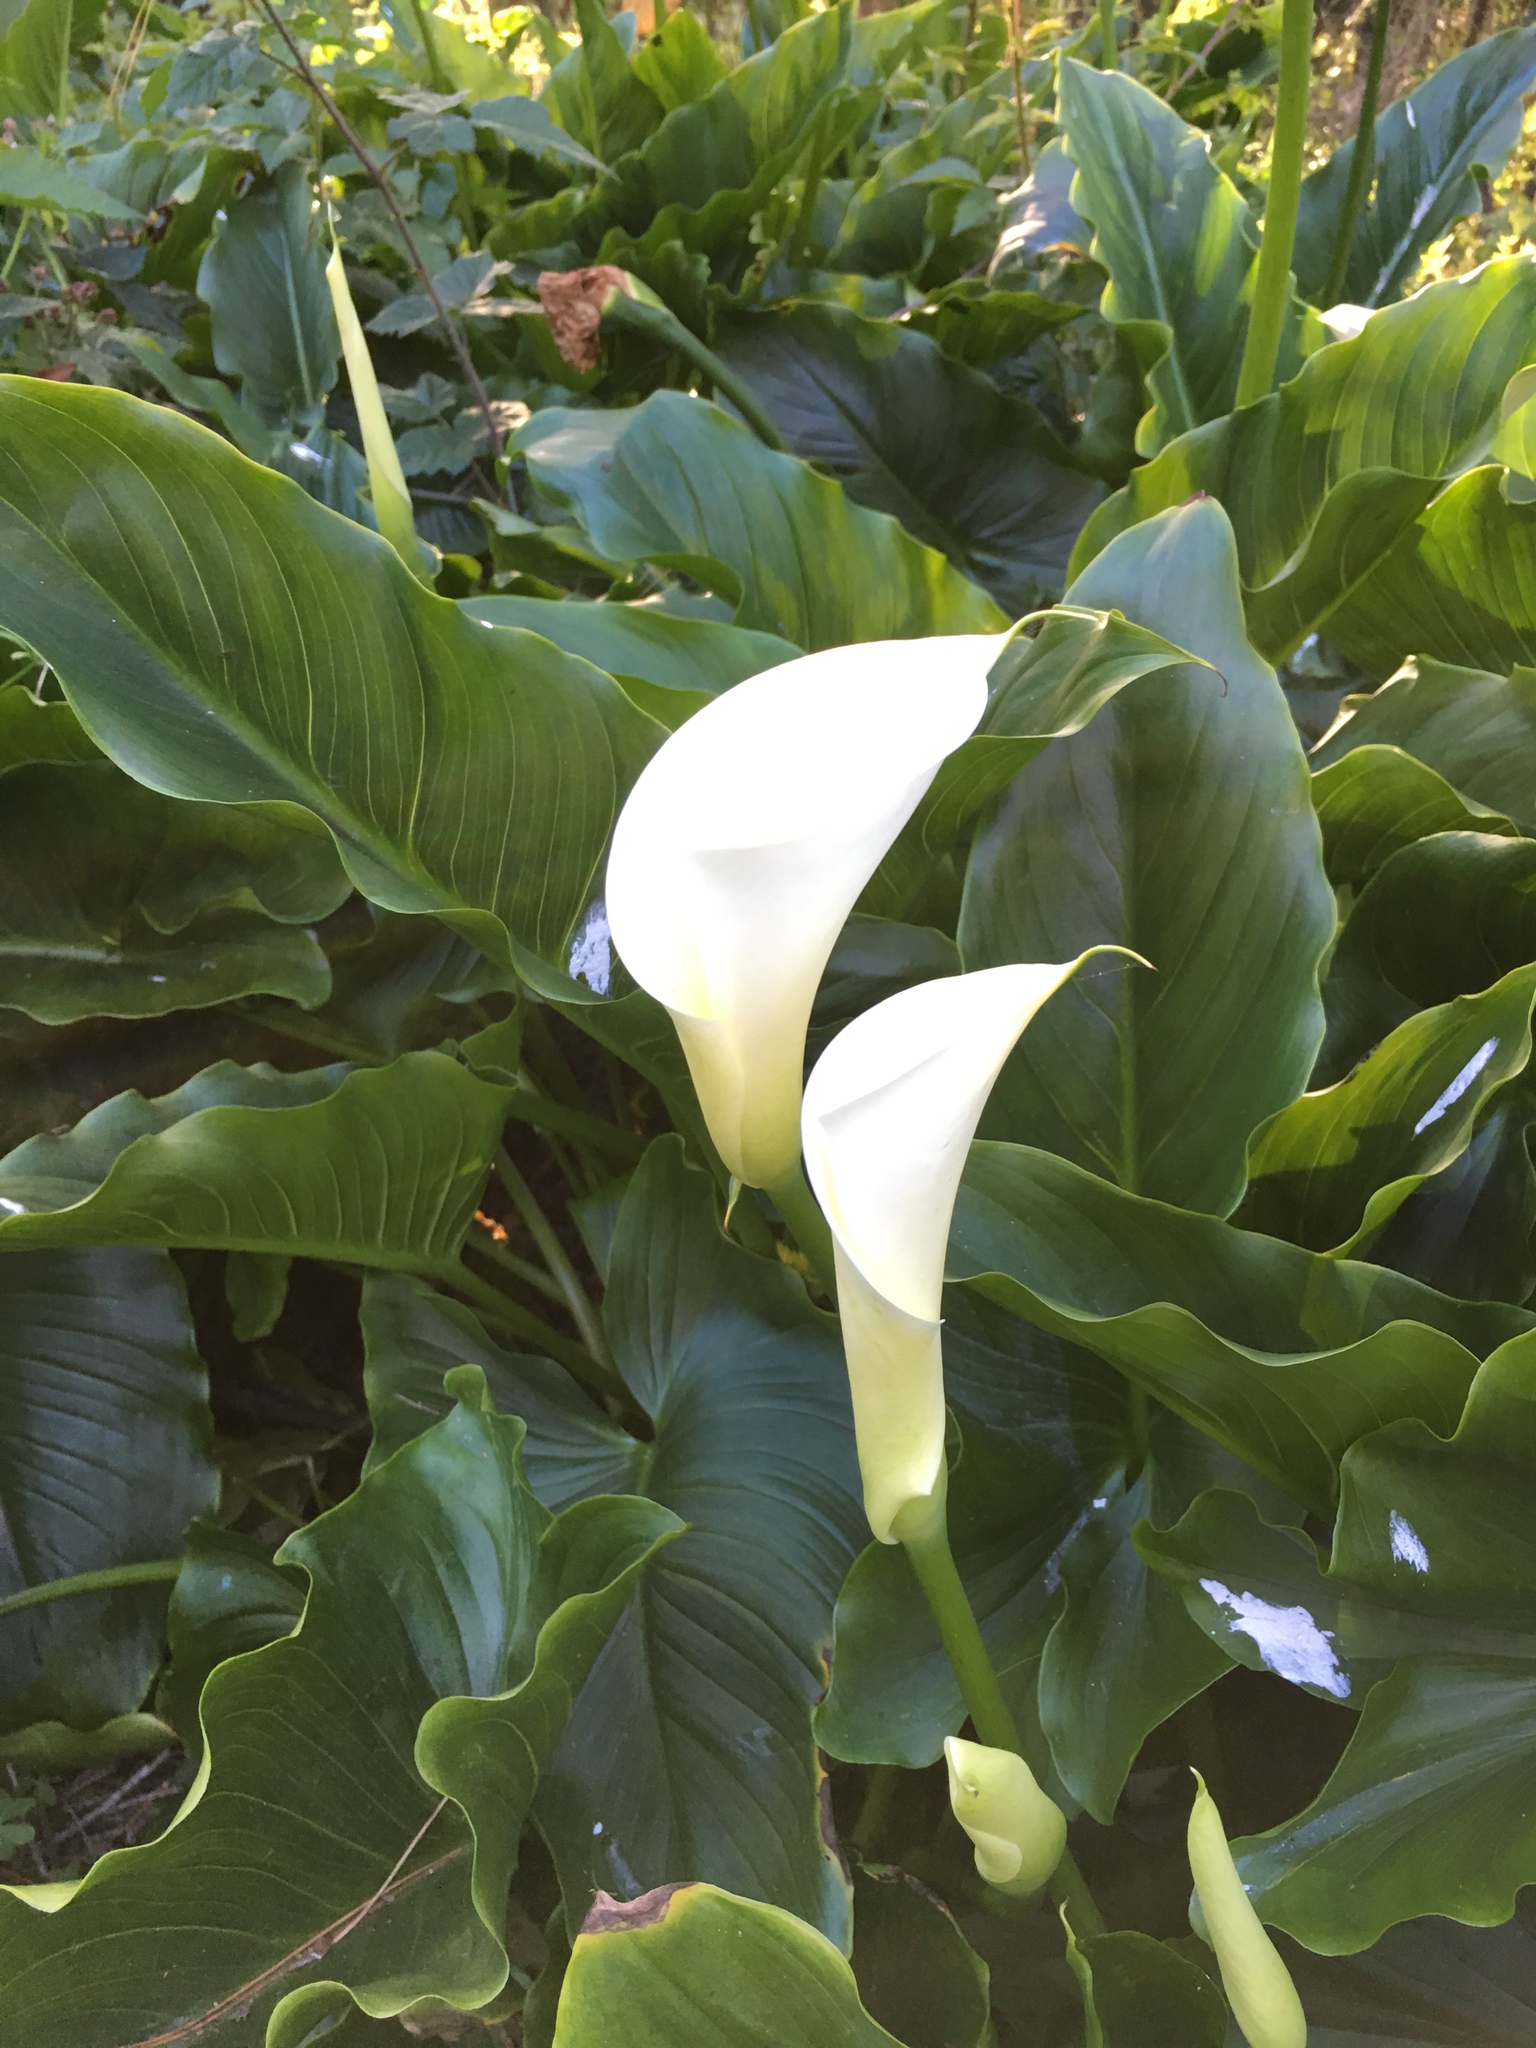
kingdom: Plantae
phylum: Tracheophyta
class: Liliopsida
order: Alismatales
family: Araceae
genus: Zantedeschia
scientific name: Zantedeschia aethiopica
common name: Altar-lily
